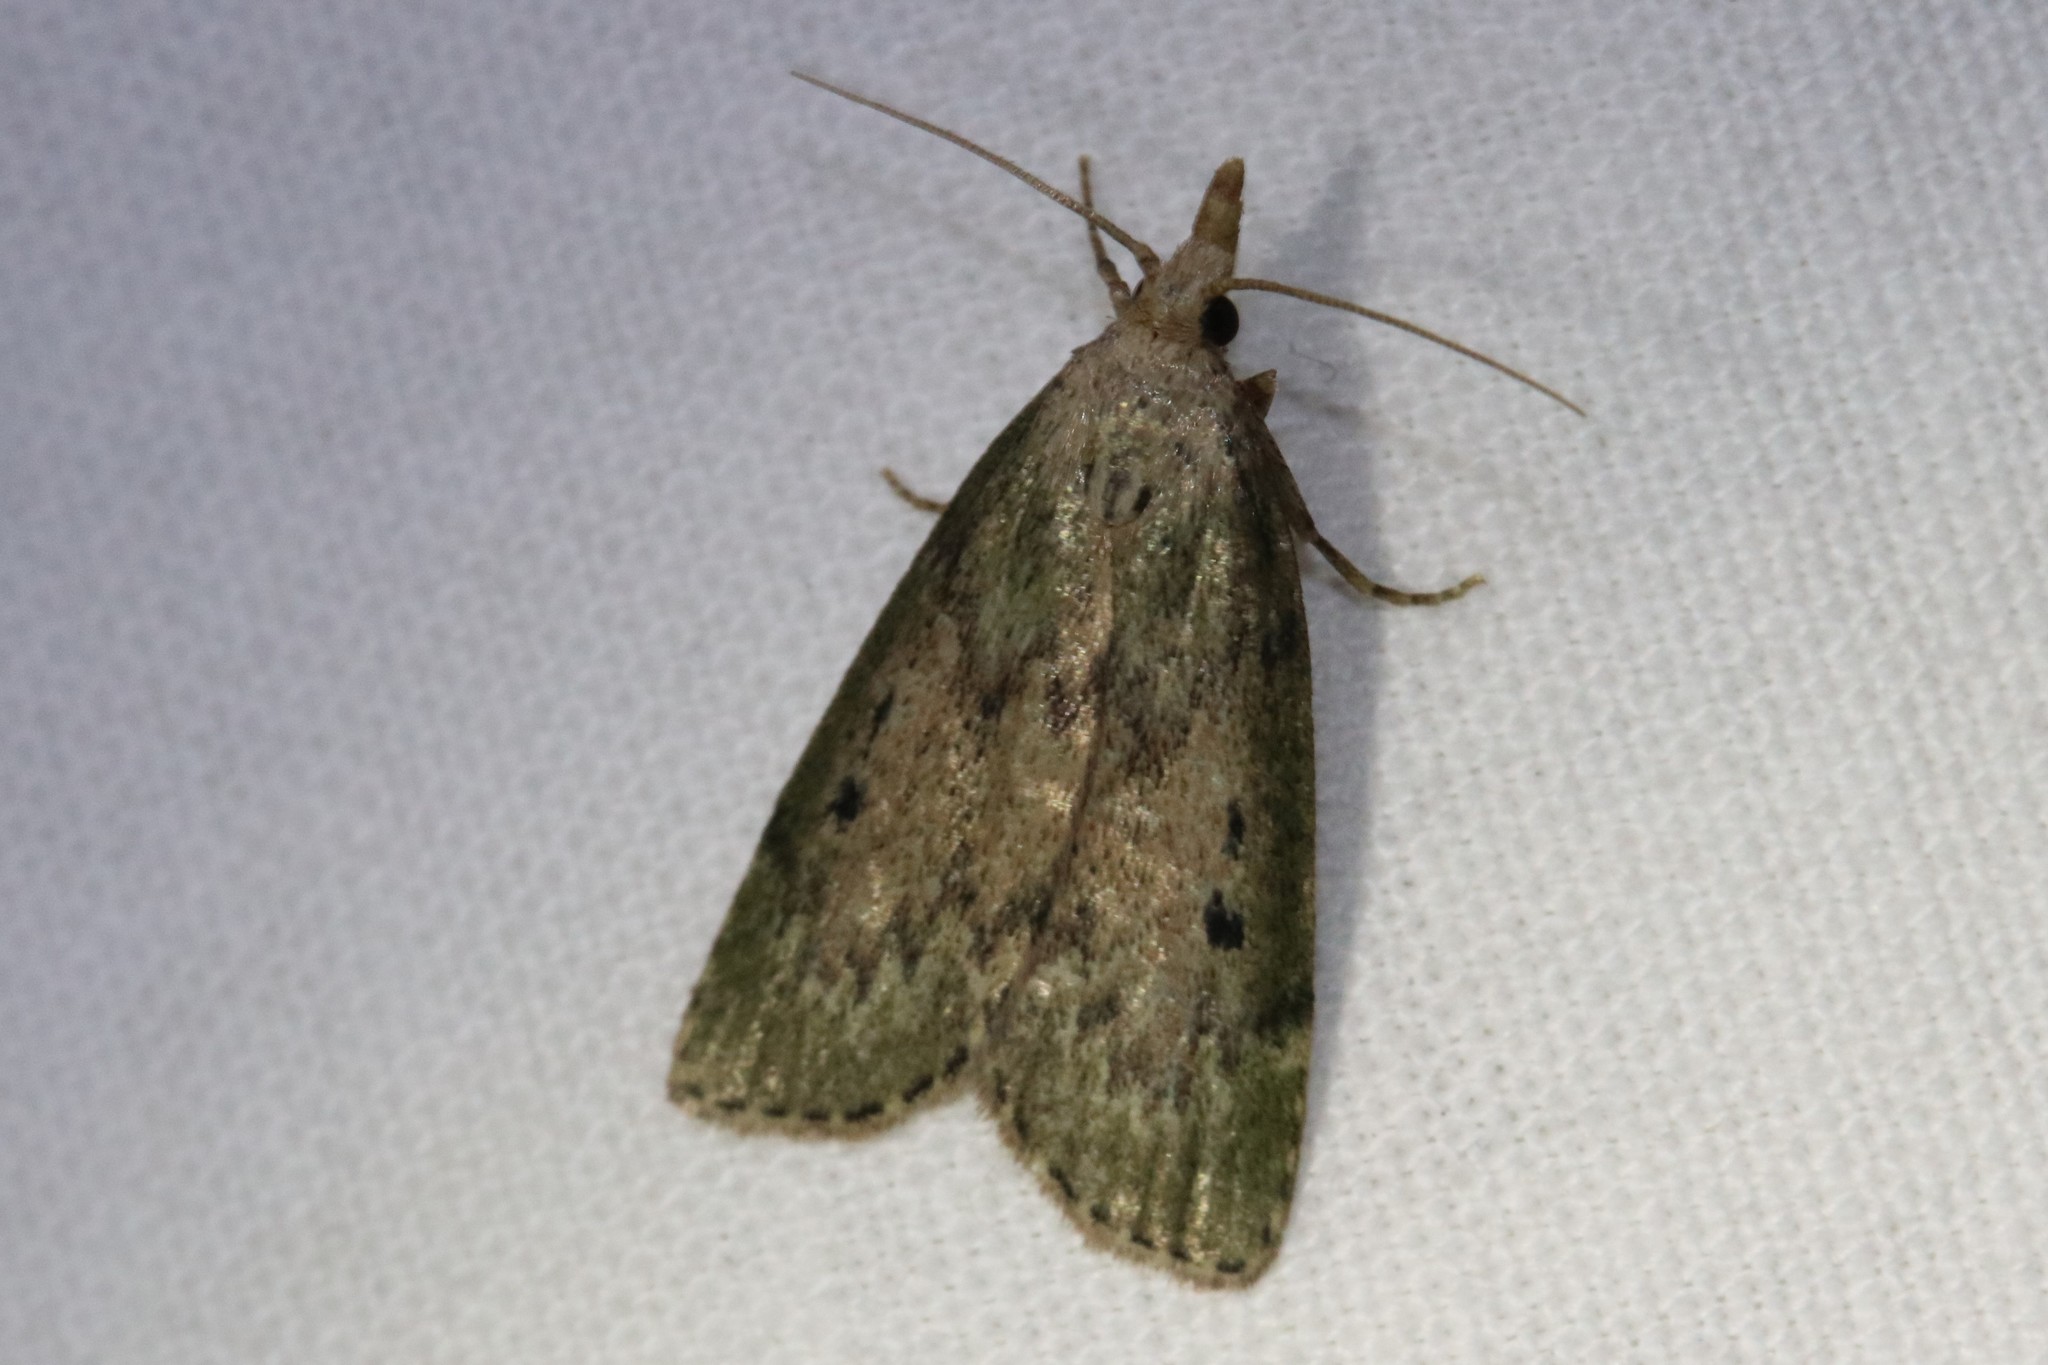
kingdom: Animalia
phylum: Arthropoda
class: Insecta
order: Lepidoptera
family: Pyralidae
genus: Aphomia
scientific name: Aphomia sociella
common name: Bee moth
